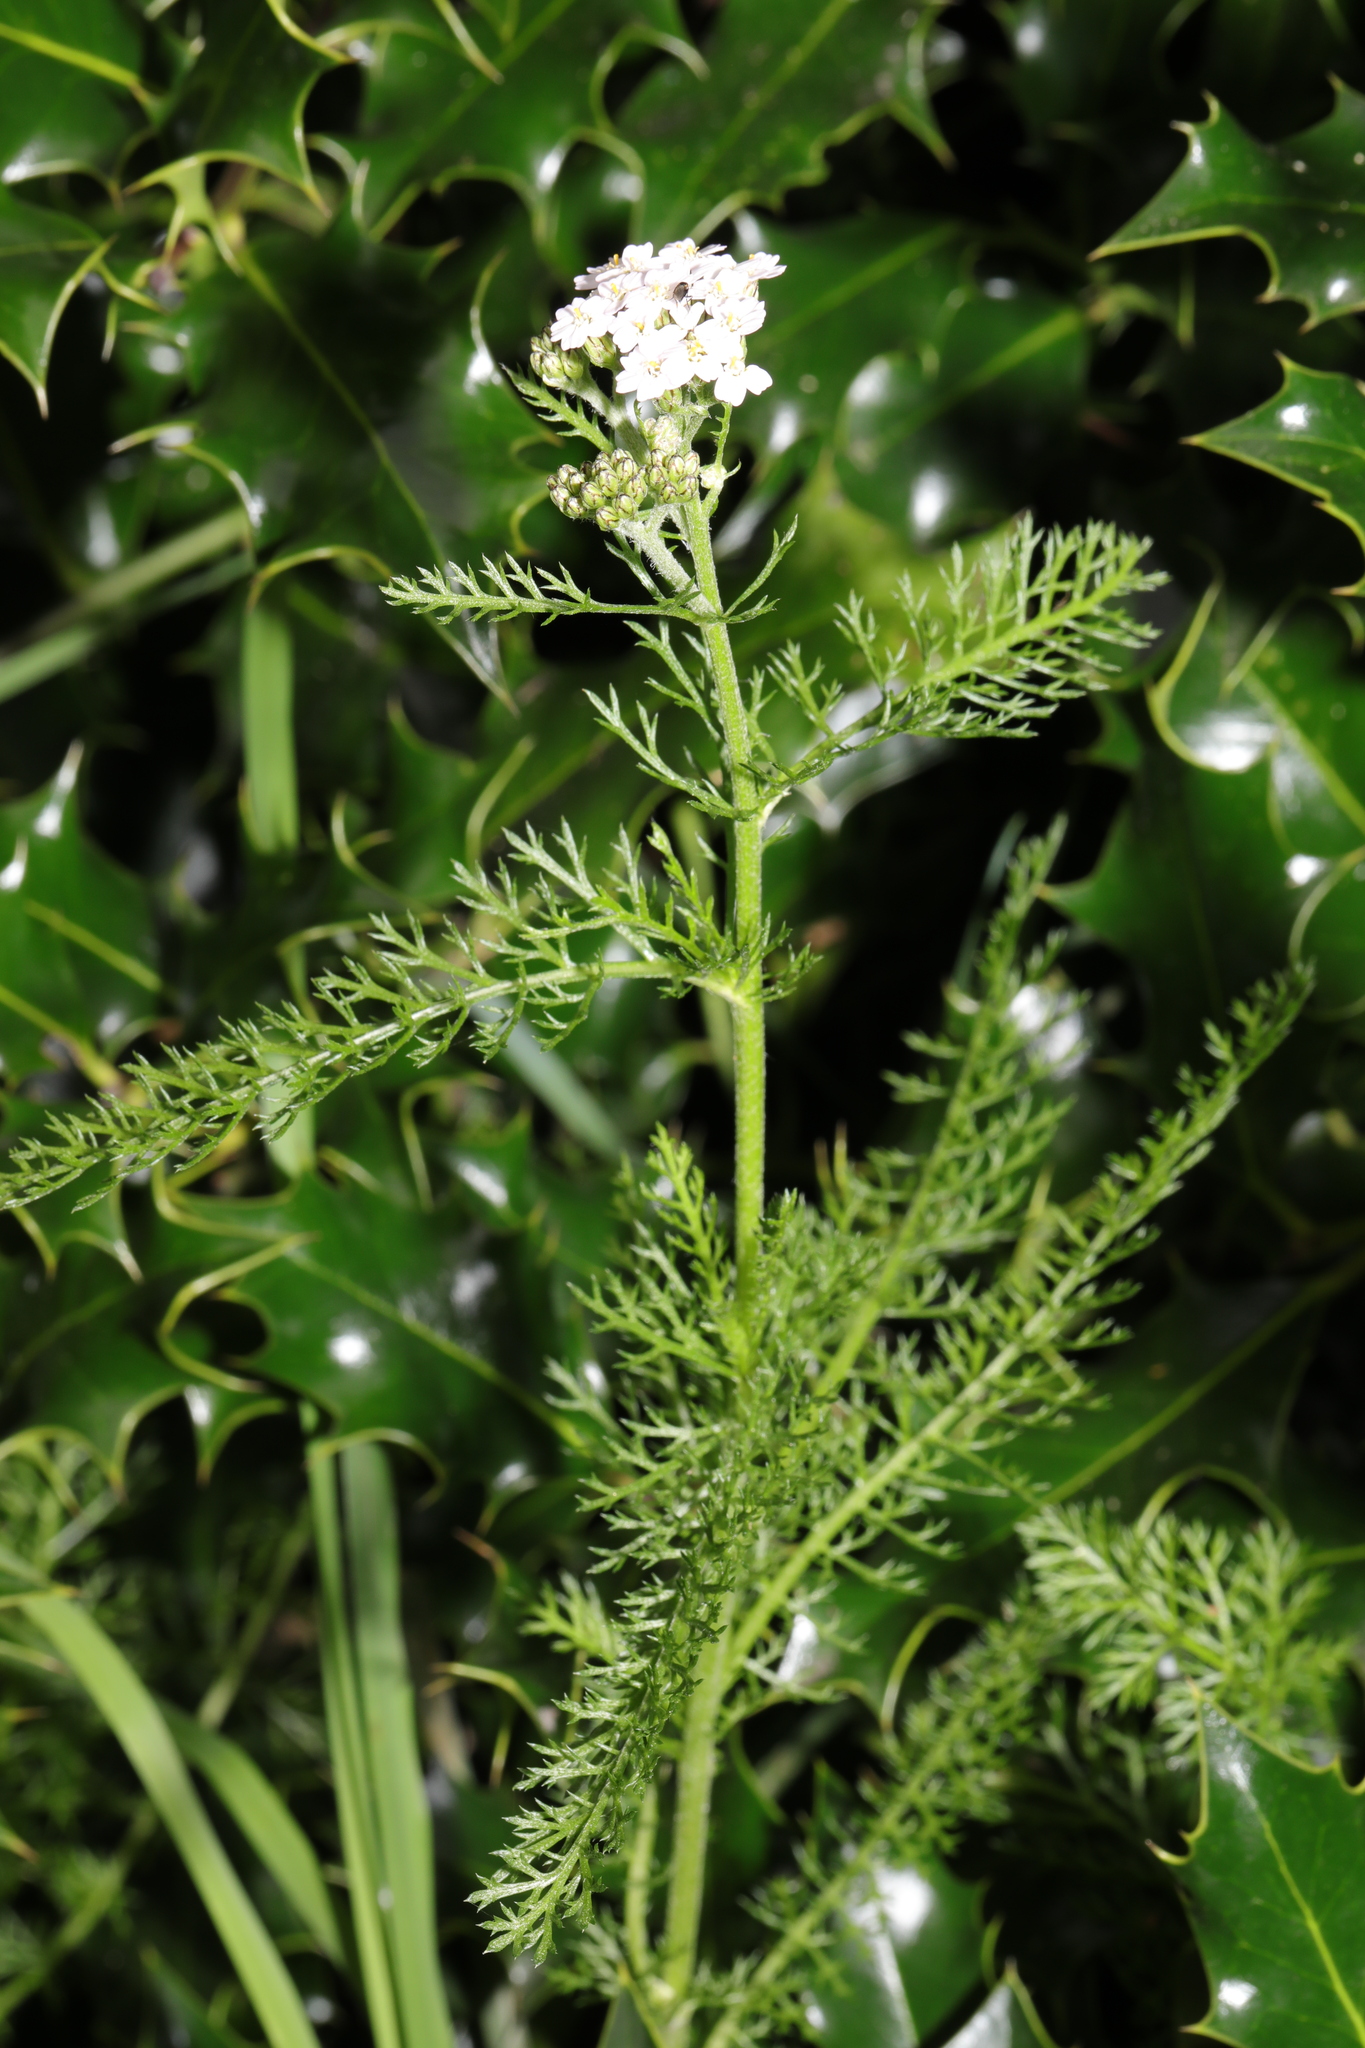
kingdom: Plantae
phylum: Tracheophyta
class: Magnoliopsida
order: Asterales
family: Asteraceae
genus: Achillea
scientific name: Achillea millefolium
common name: Yarrow
